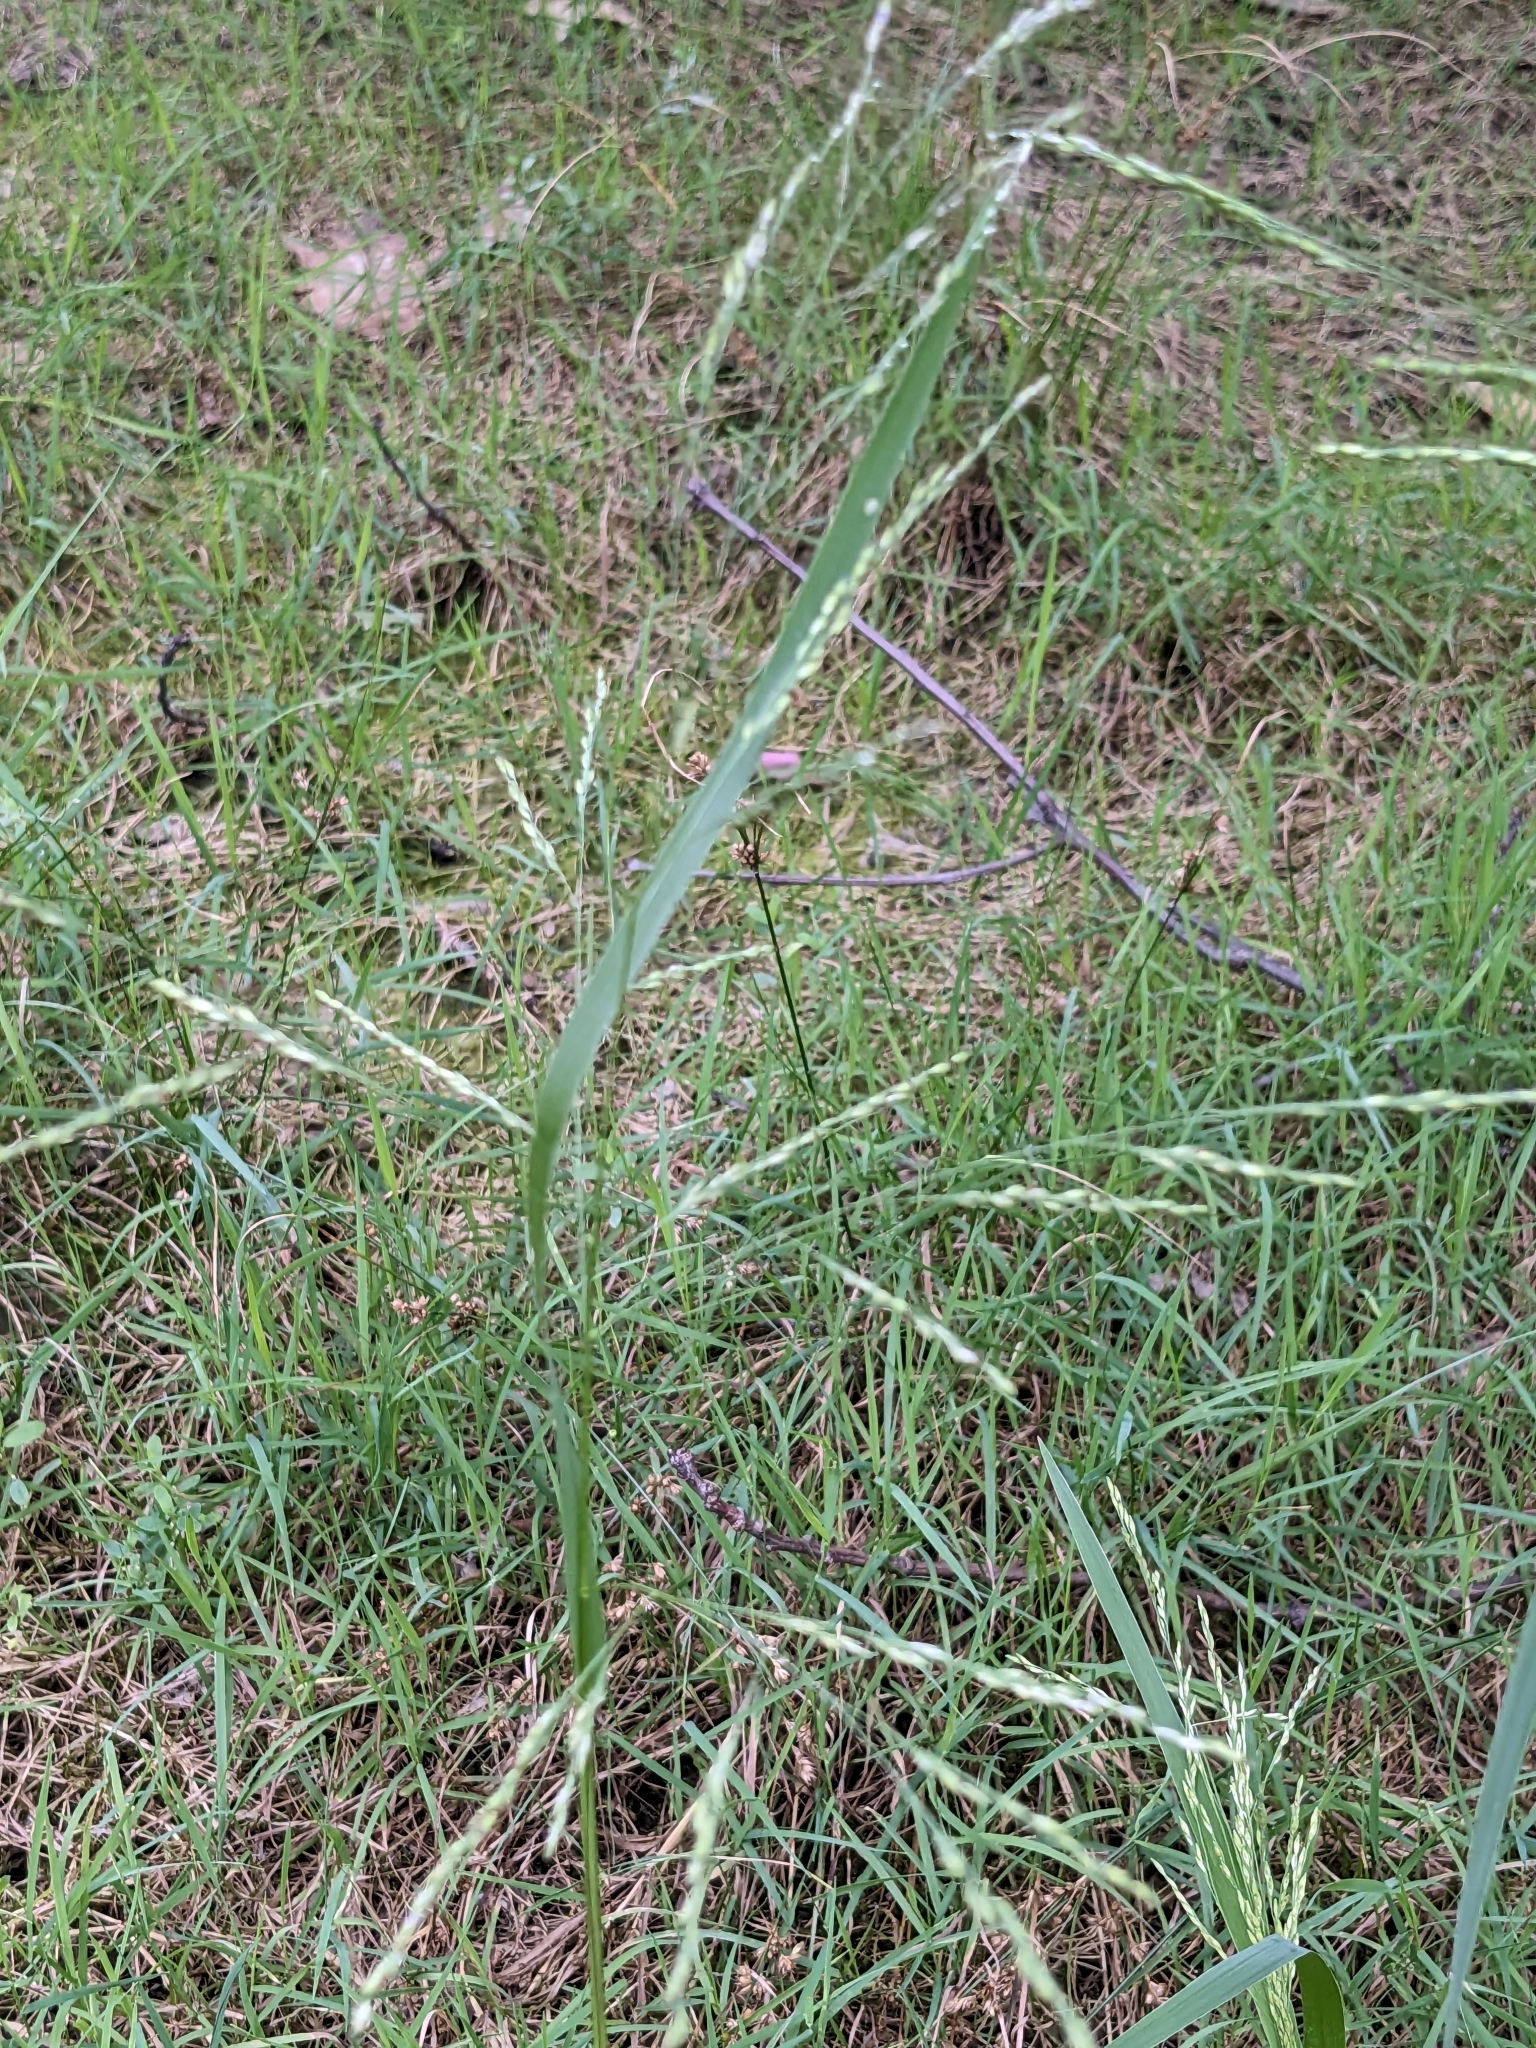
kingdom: Plantae
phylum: Tracheophyta
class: Liliopsida
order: Poales
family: Poaceae
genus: Panicum
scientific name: Panicum dichotomiflorum
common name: Autumn millet
